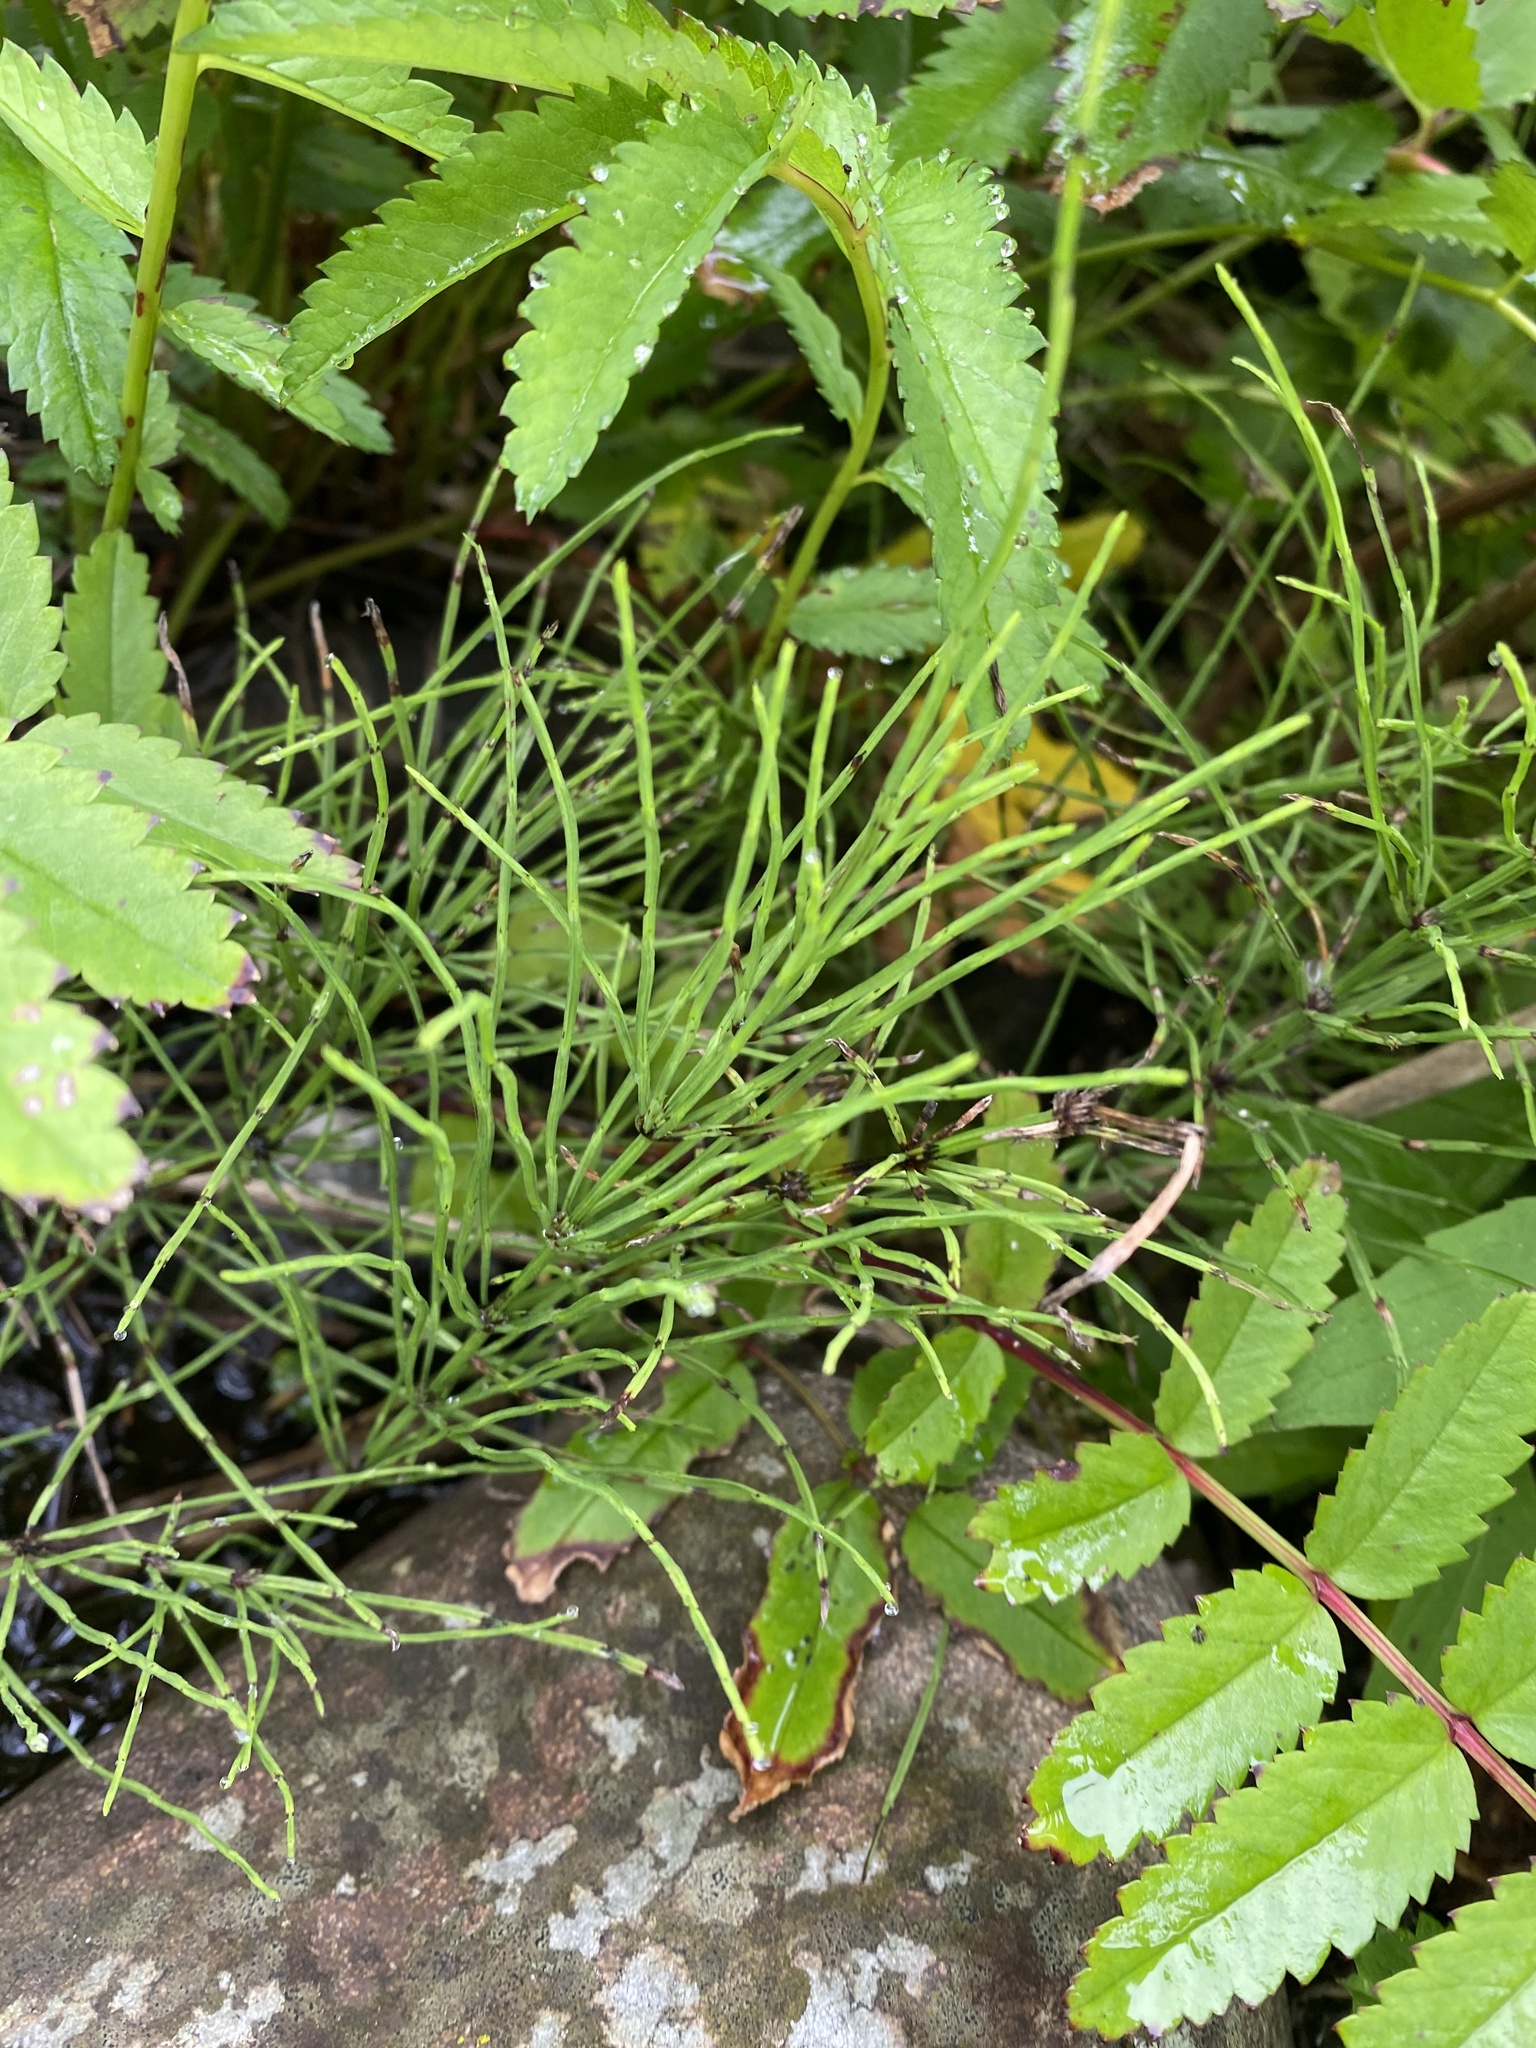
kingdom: Plantae
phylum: Tracheophyta
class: Polypodiopsida
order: Equisetales
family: Equisetaceae
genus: Equisetum
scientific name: Equisetum arvense
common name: Field horsetail
